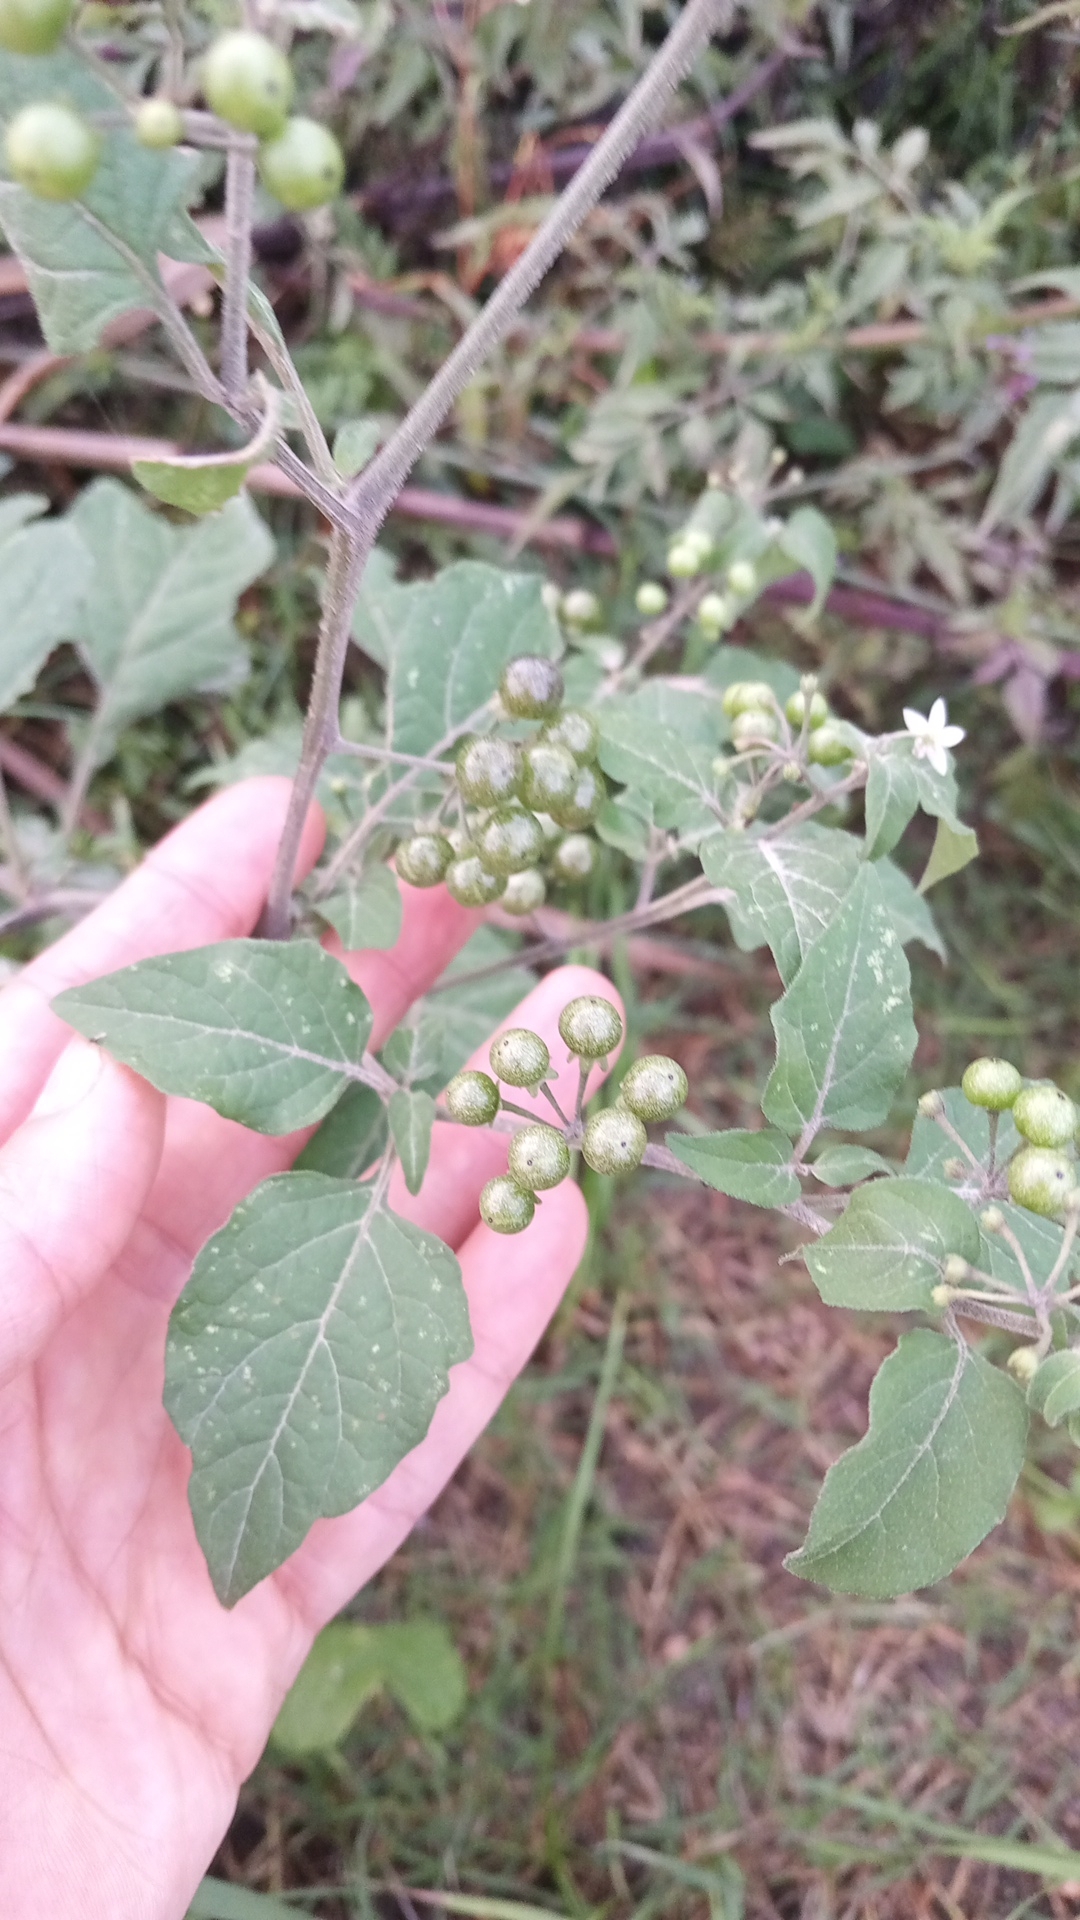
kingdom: Plantae
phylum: Tracheophyta
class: Magnoliopsida
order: Solanales
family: Solanaceae
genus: Solanum
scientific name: Solanum americanum
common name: American black nightshade
